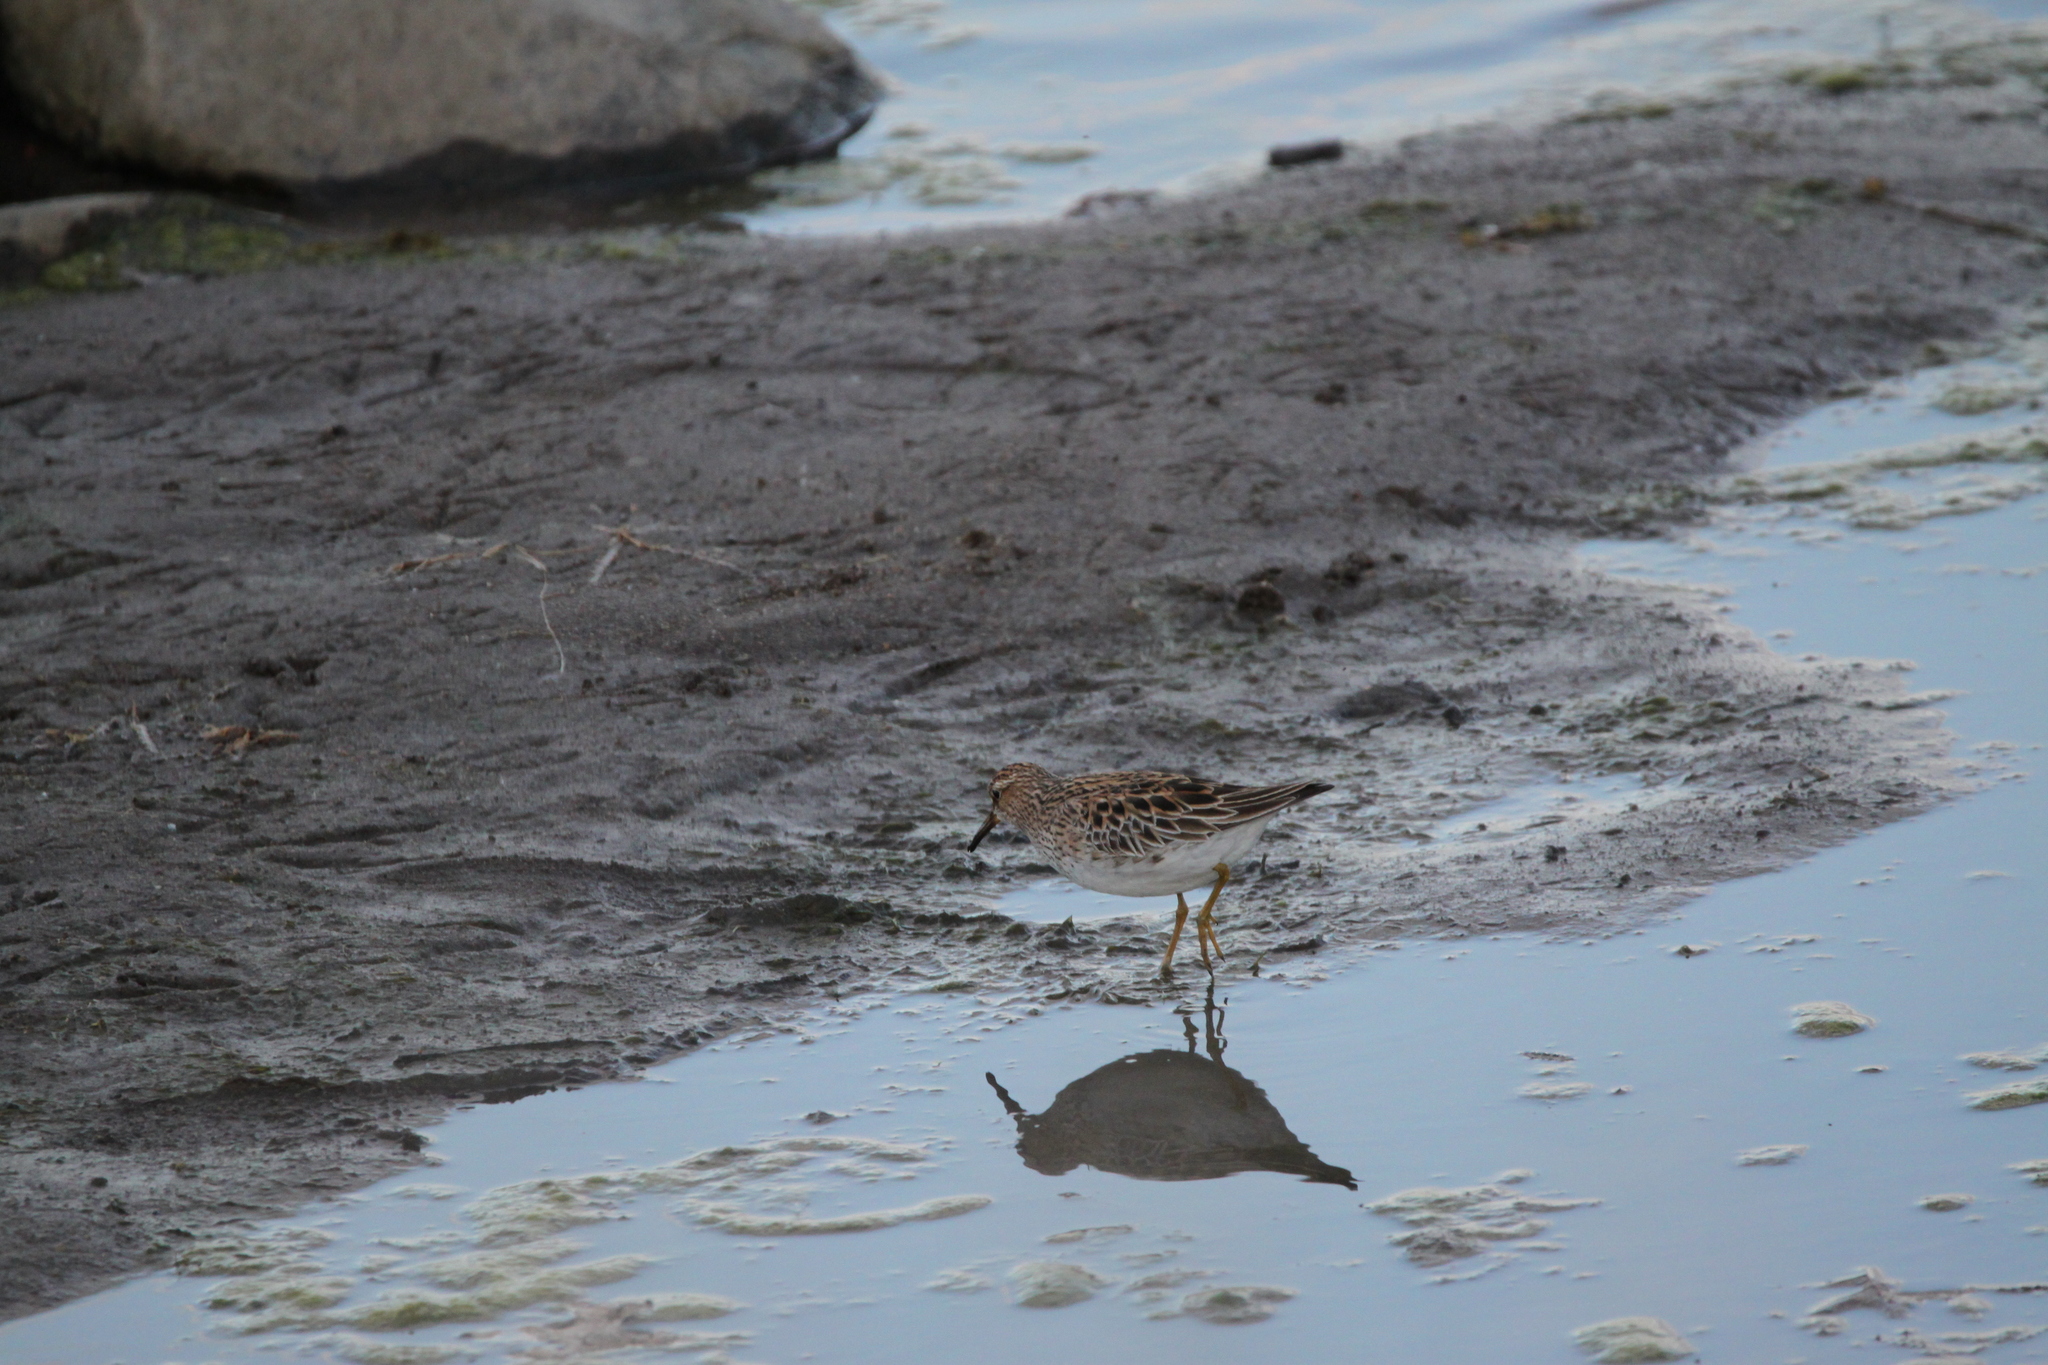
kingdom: Animalia
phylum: Chordata
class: Aves
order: Charadriiformes
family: Scolopacidae
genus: Calidris
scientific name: Calidris melanotos
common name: Pectoral sandpiper
